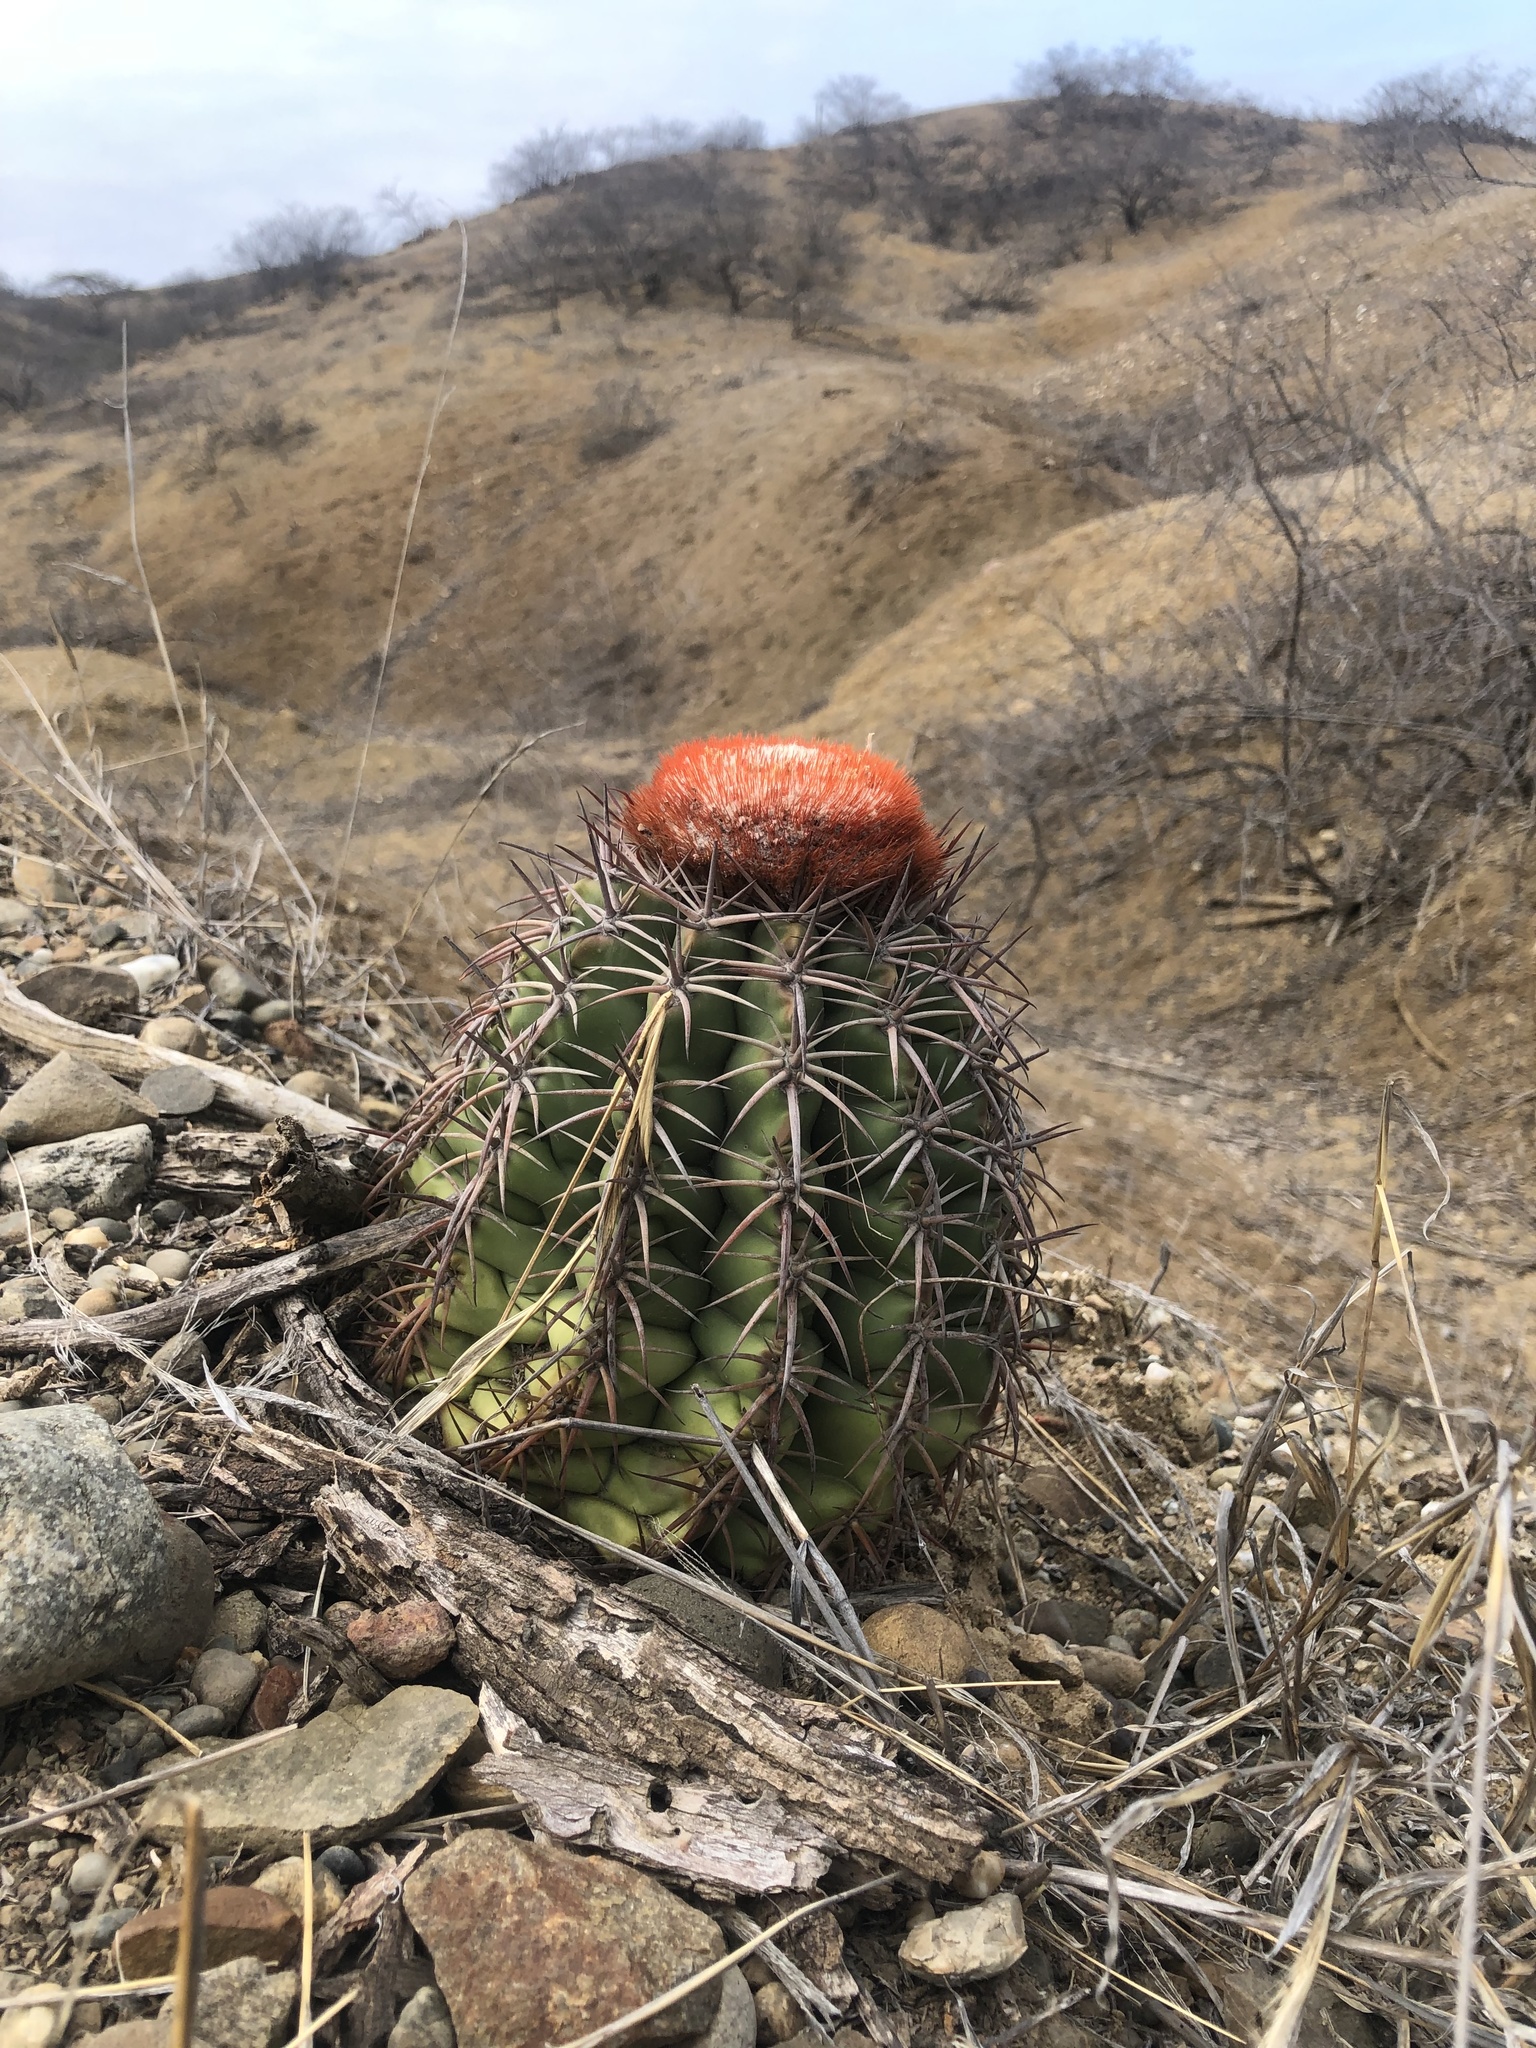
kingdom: Plantae
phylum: Tracheophyta
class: Magnoliopsida
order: Caryophyllales
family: Cactaceae
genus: Melocactus
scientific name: Melocactus peruvianus
